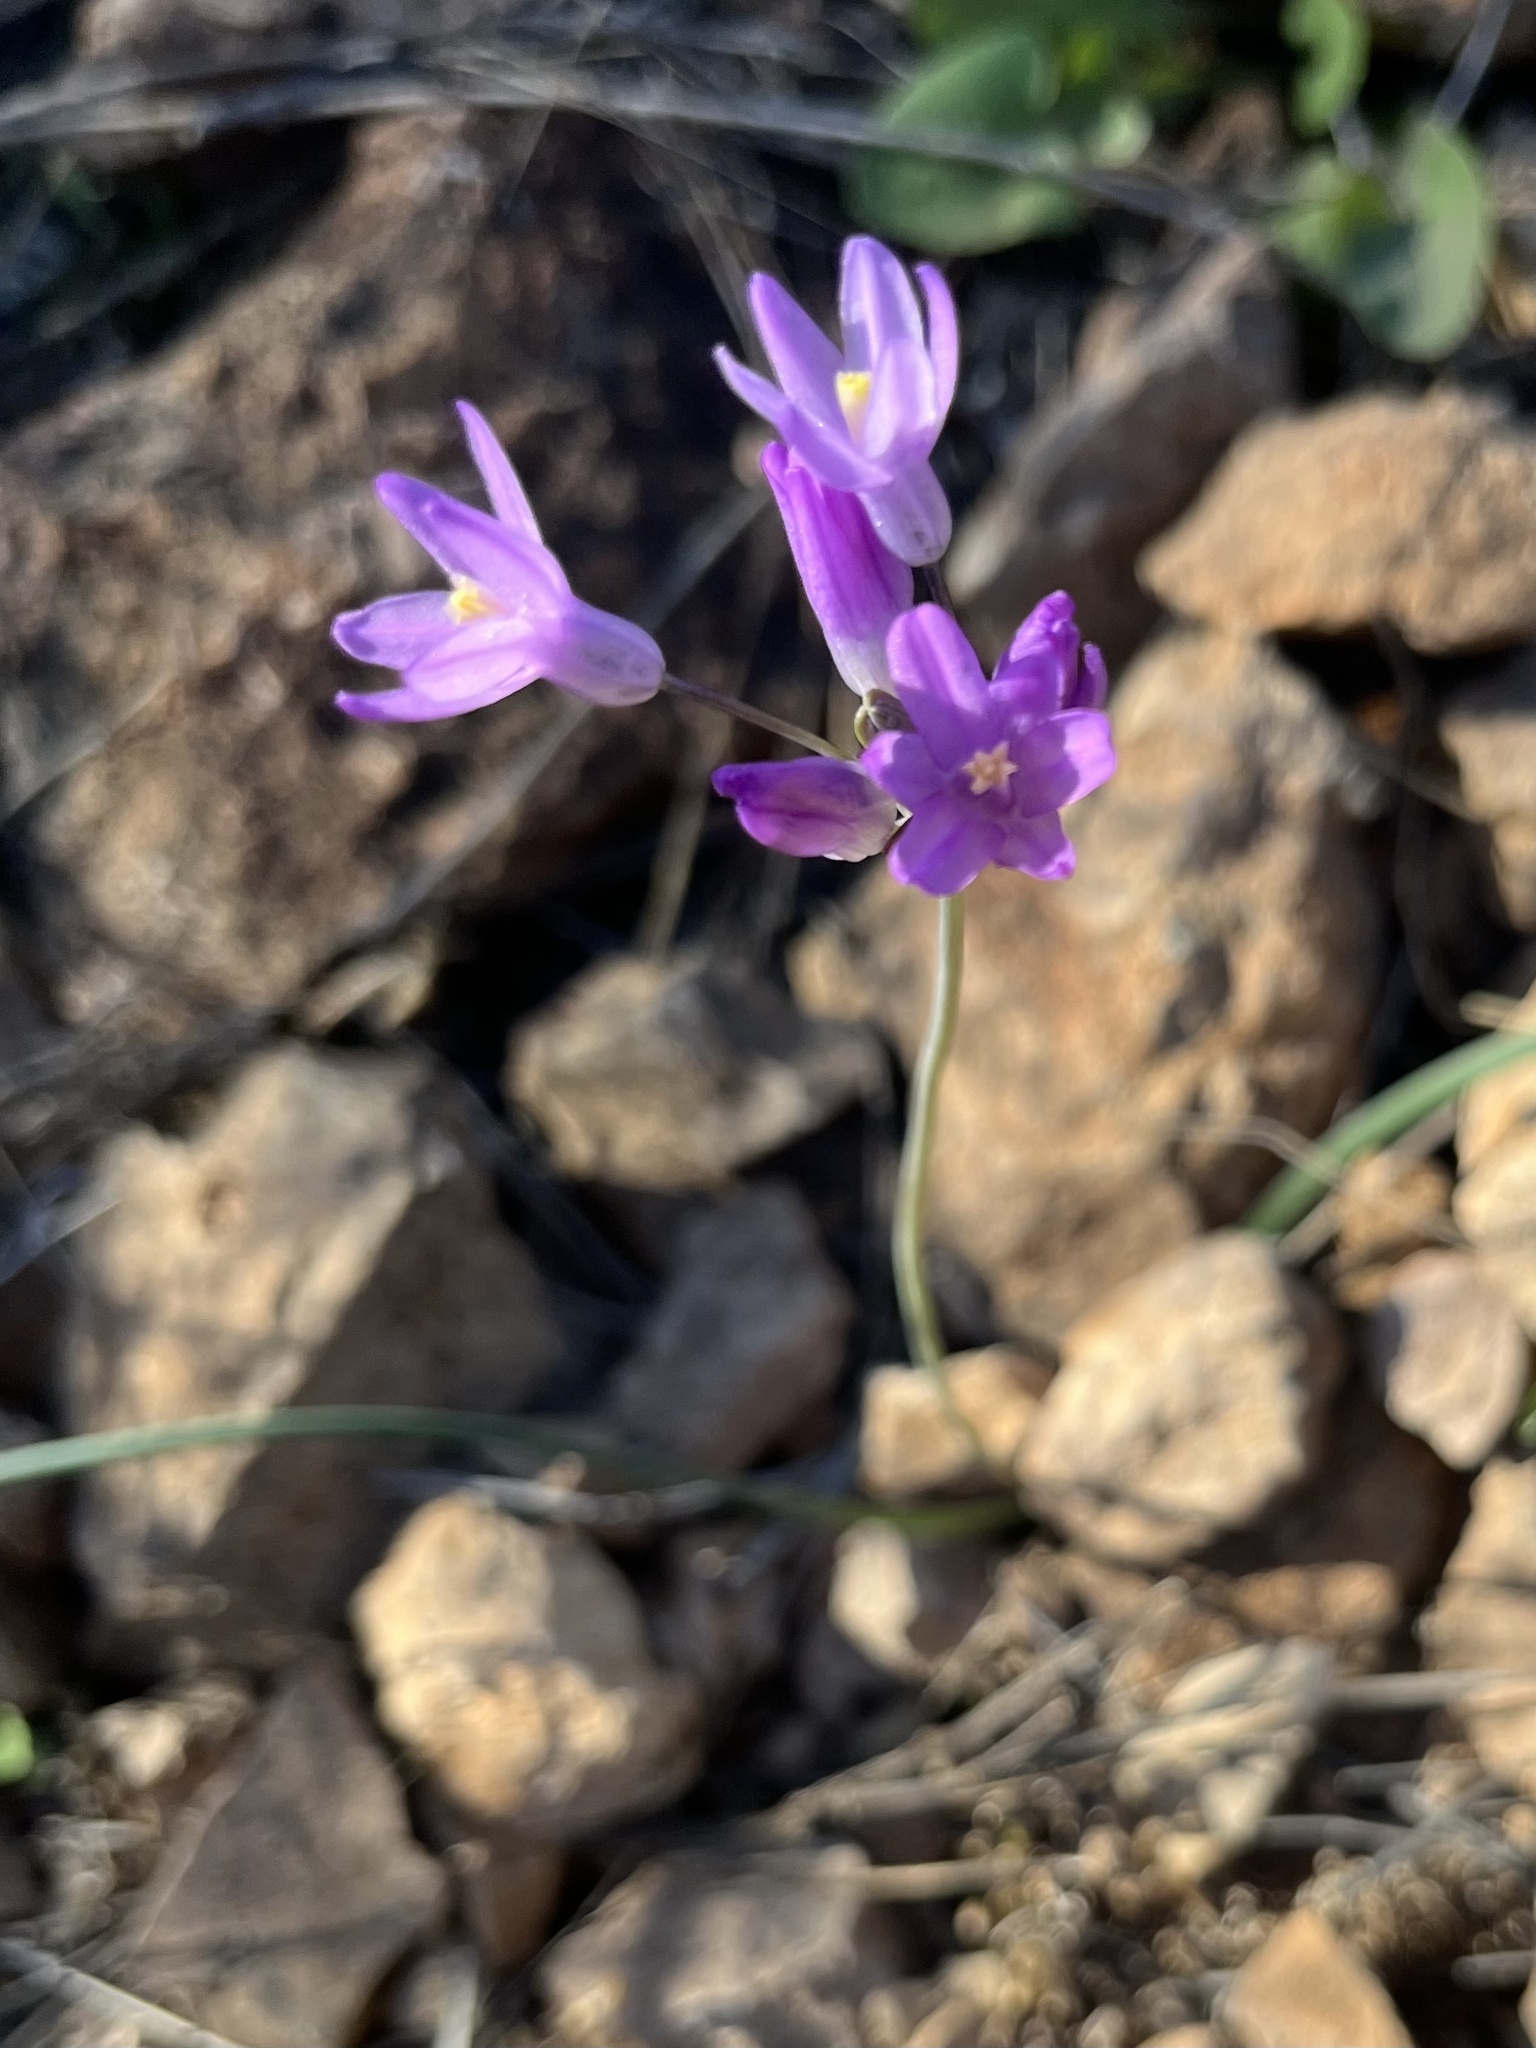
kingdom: Plantae
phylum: Tracheophyta
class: Liliopsida
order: Asparagales
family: Asparagaceae
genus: Dipterostemon
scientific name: Dipterostemon capitatus
